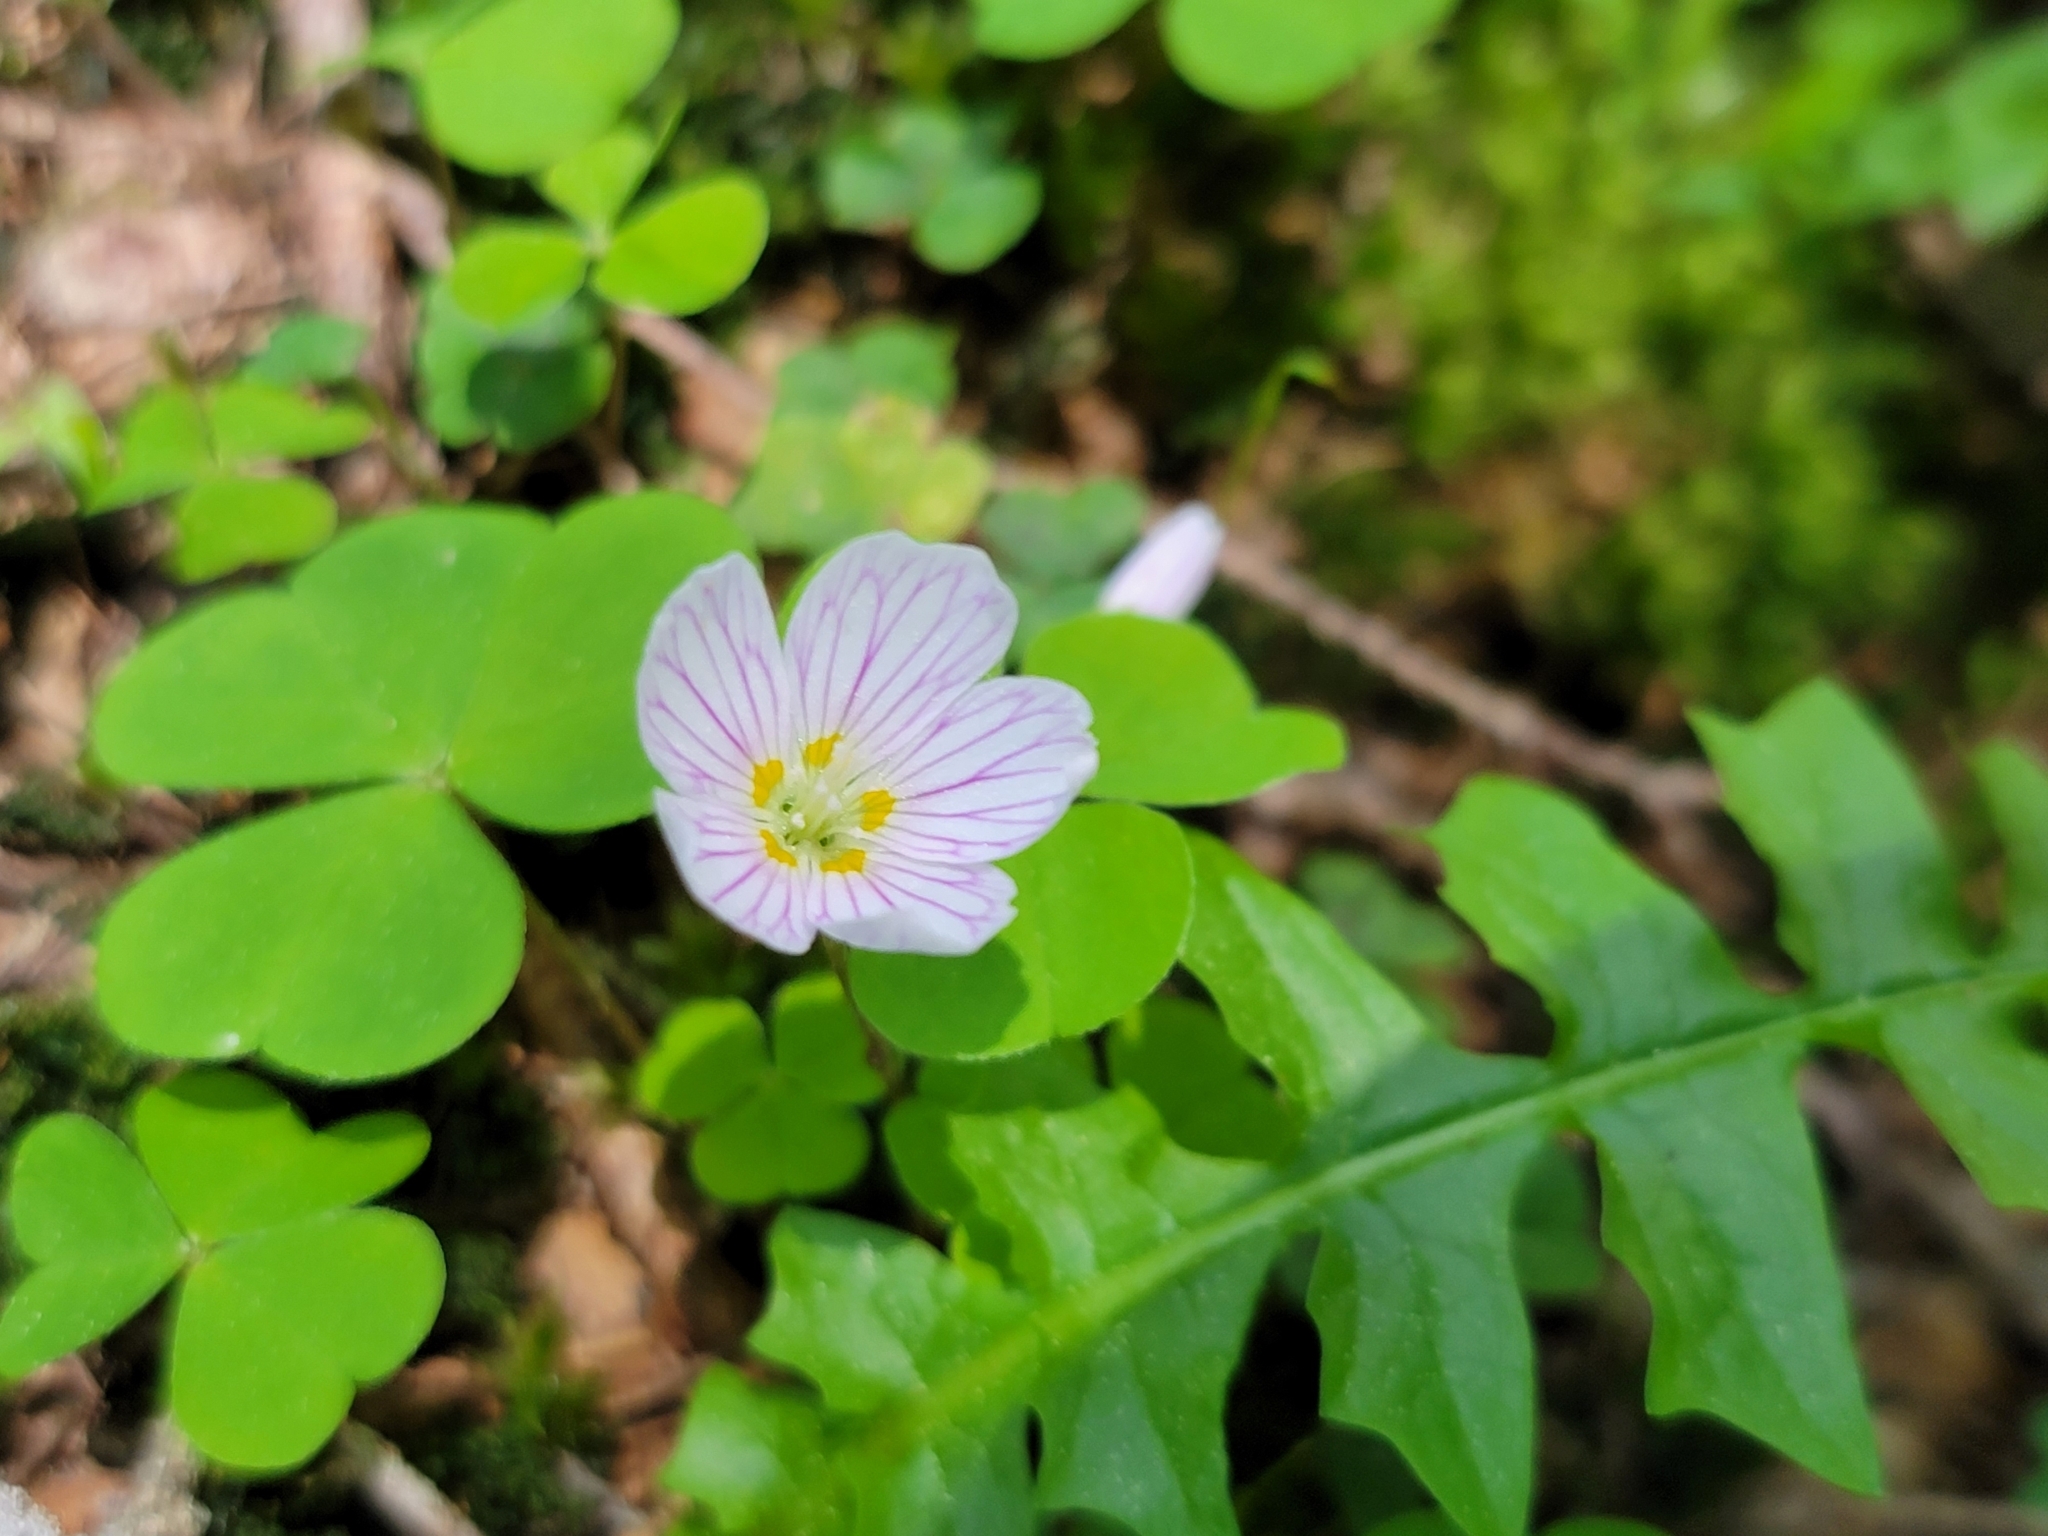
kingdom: Plantae
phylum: Tracheophyta
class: Magnoliopsida
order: Oxalidales
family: Oxalidaceae
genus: Oxalis
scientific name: Oxalis acetosella
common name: Wood-sorrel
